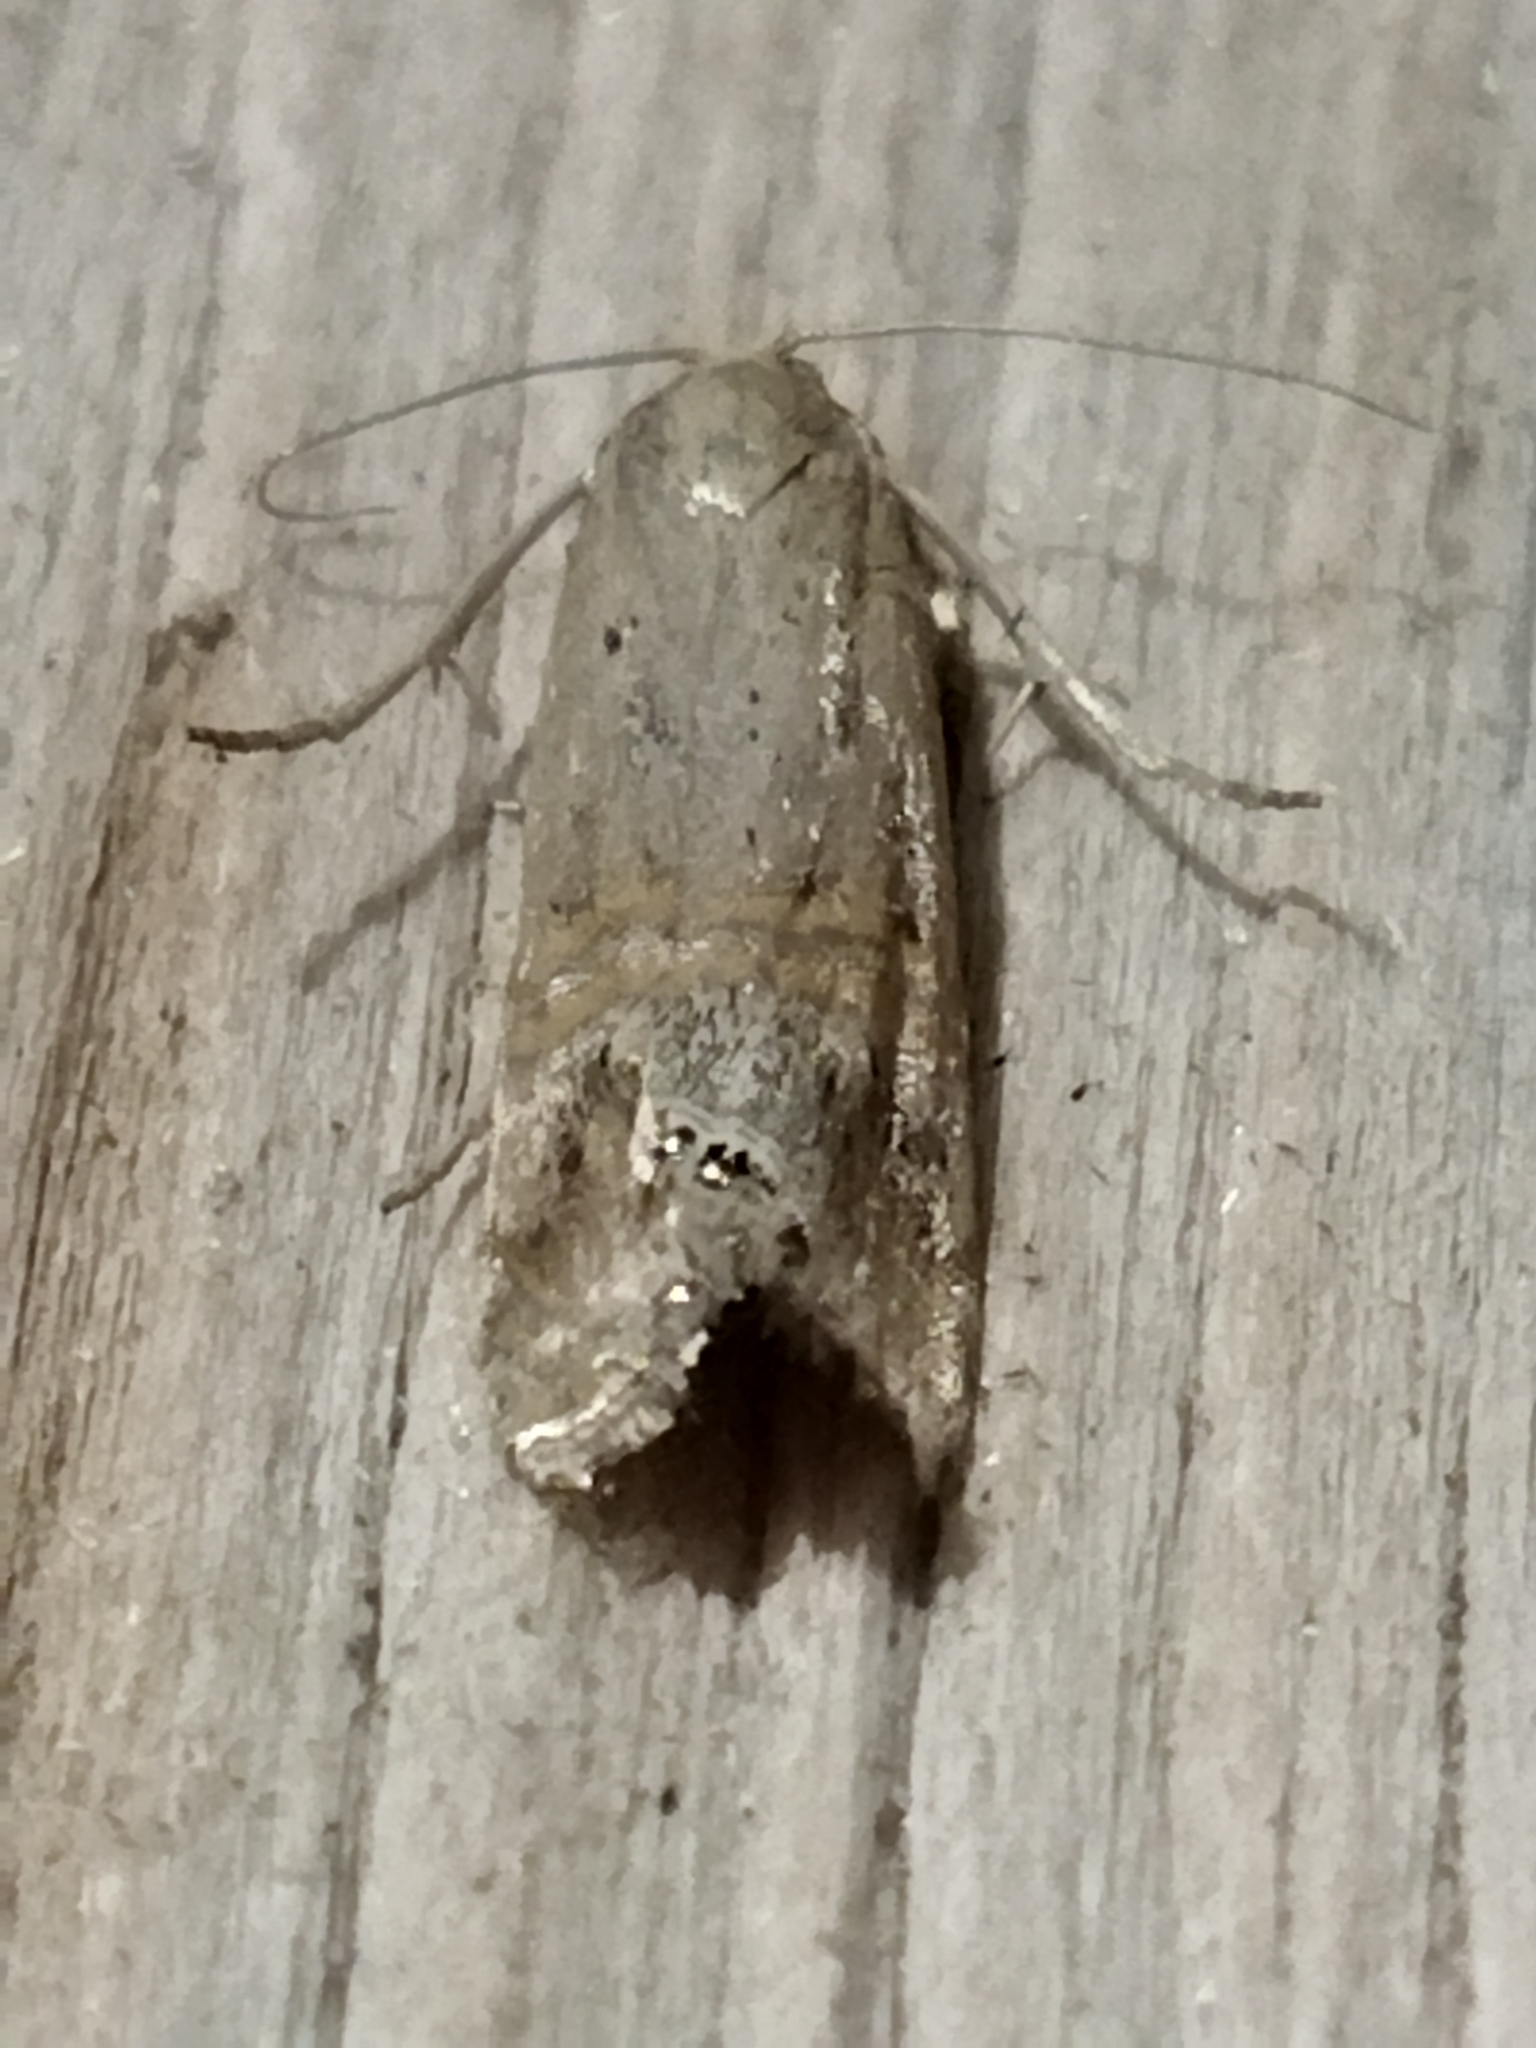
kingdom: Animalia
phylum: Arthropoda
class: Insecta
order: Lepidoptera
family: Crambidae
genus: Euchromius
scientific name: Euchromius ocellea
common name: Necklace veneer moth
